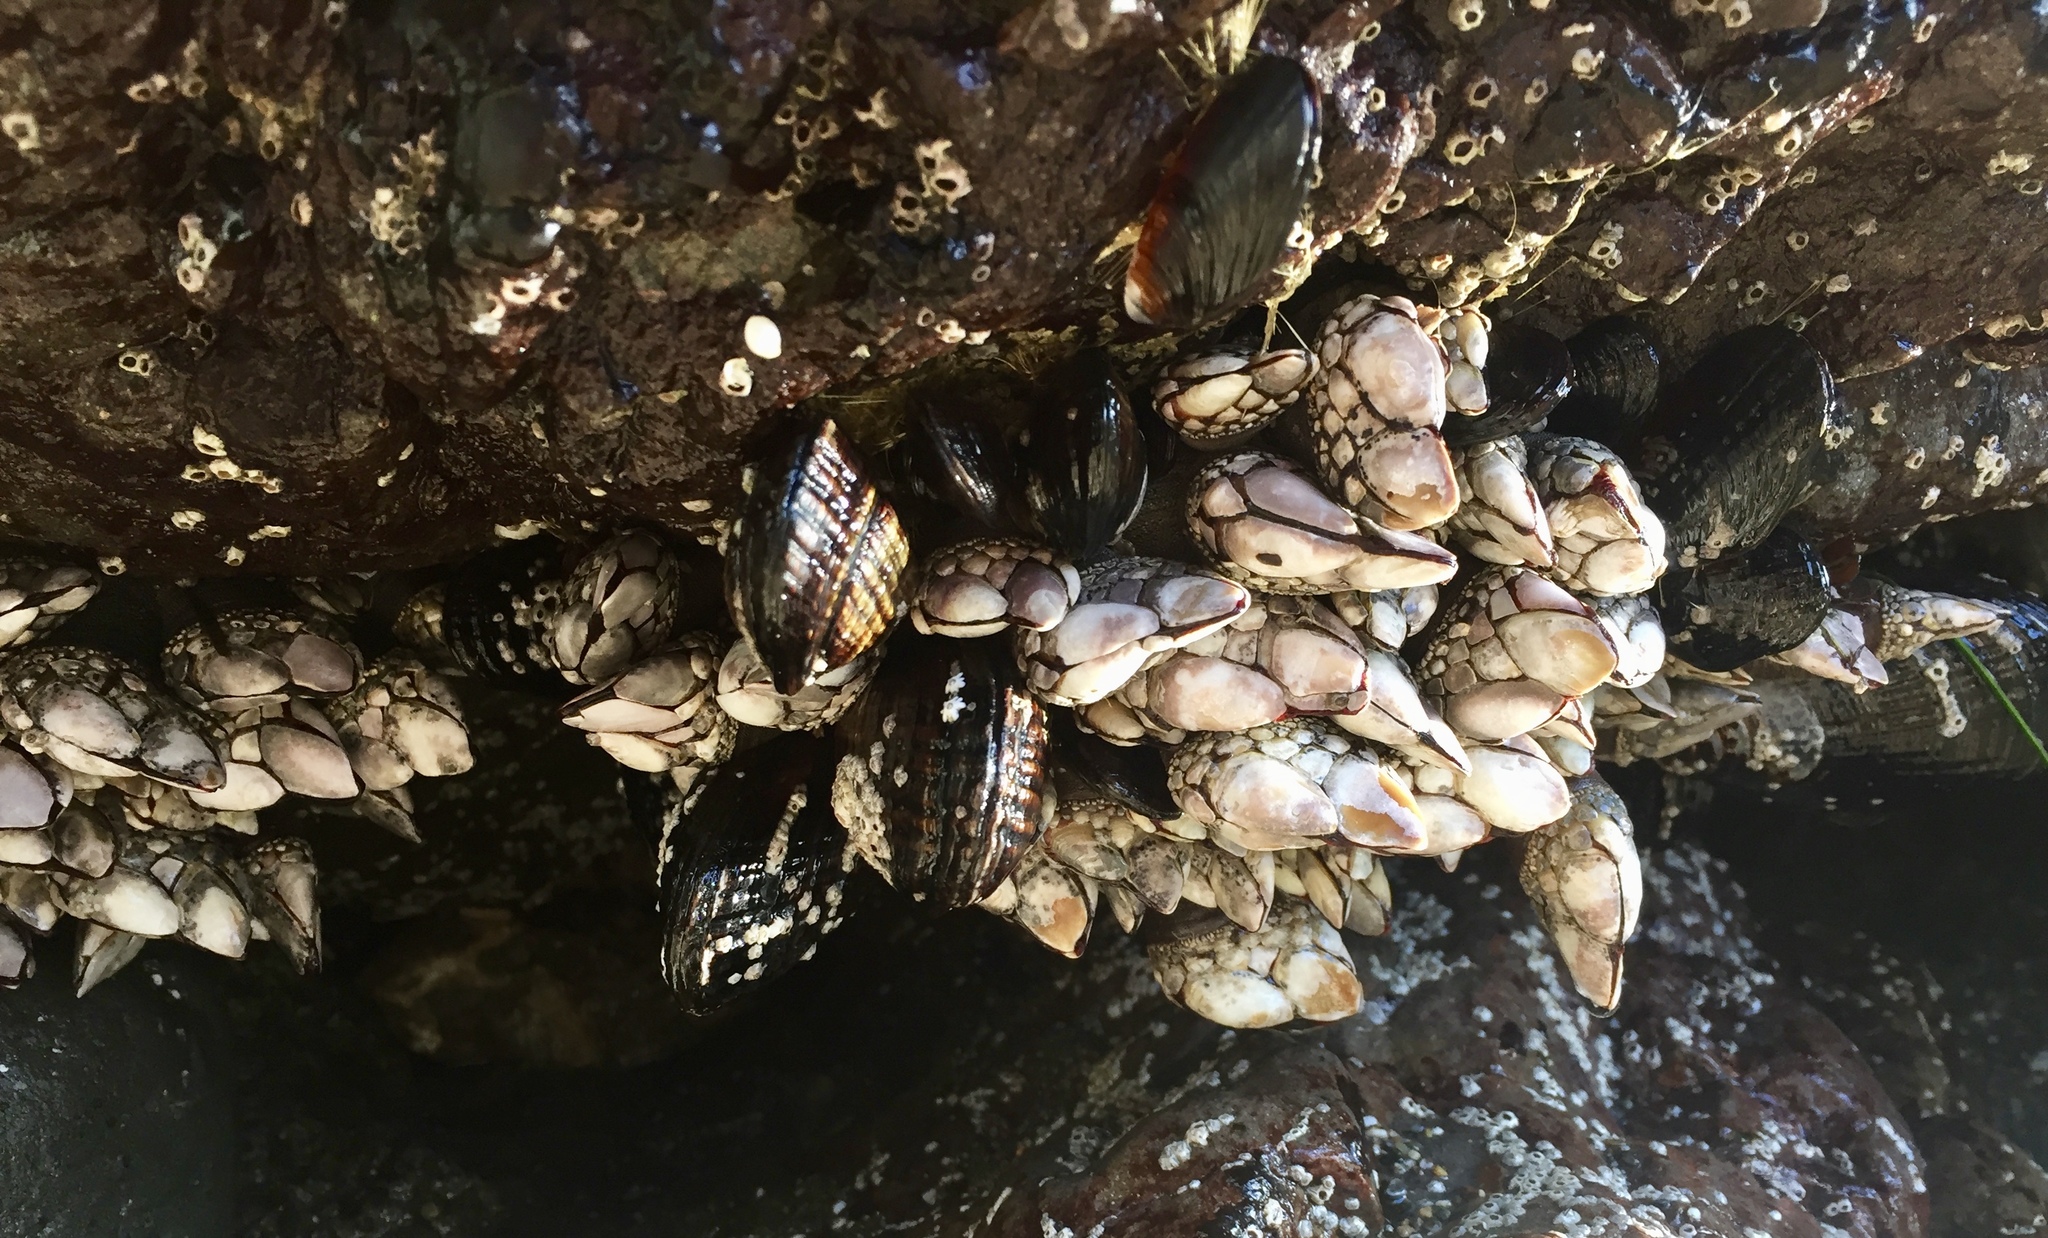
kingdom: Animalia
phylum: Arthropoda
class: Maxillopoda
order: Pedunculata
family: Pollicipedidae
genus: Pollicipes
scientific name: Pollicipes polymerus
